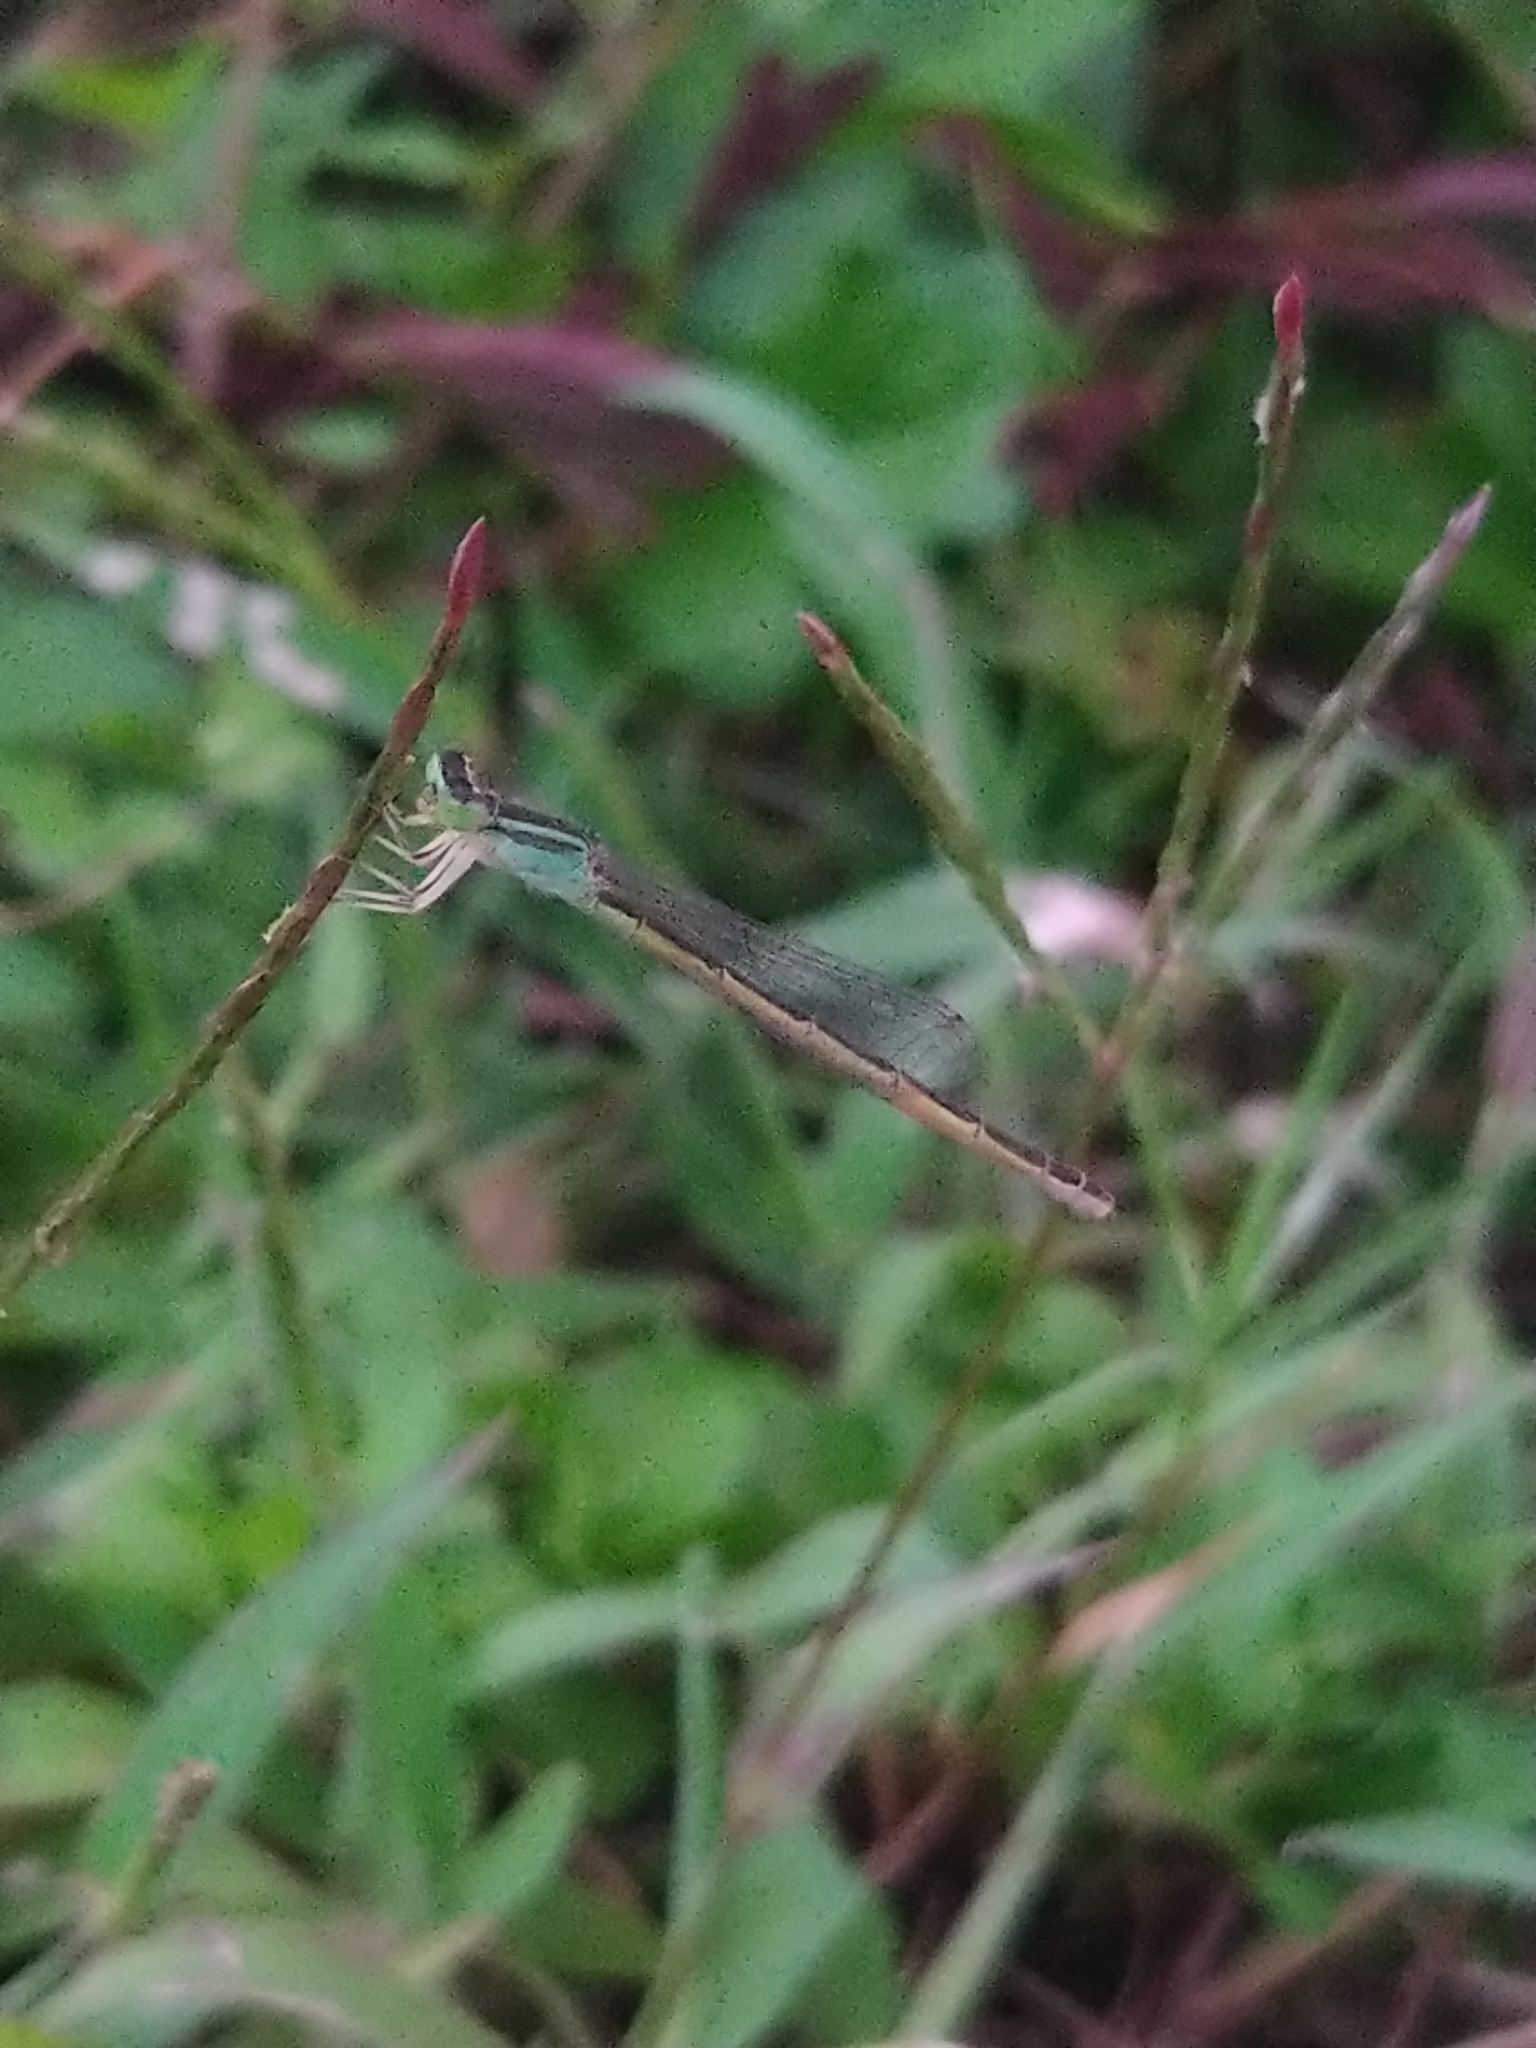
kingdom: Animalia
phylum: Arthropoda
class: Insecta
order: Odonata
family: Coenagrionidae
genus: Ischnura
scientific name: Ischnura rubilio
